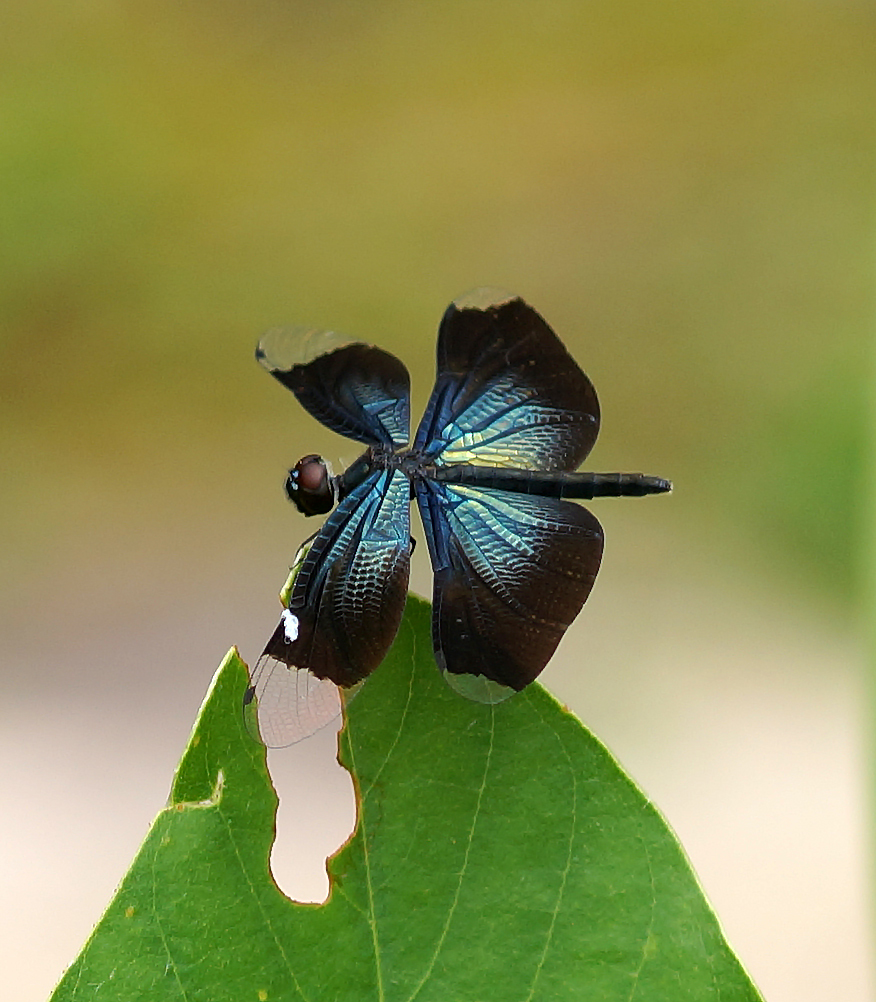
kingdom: Animalia
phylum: Arthropoda
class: Insecta
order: Odonata
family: Libellulidae
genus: Rhyothemis
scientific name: Rhyothemis plutonia
